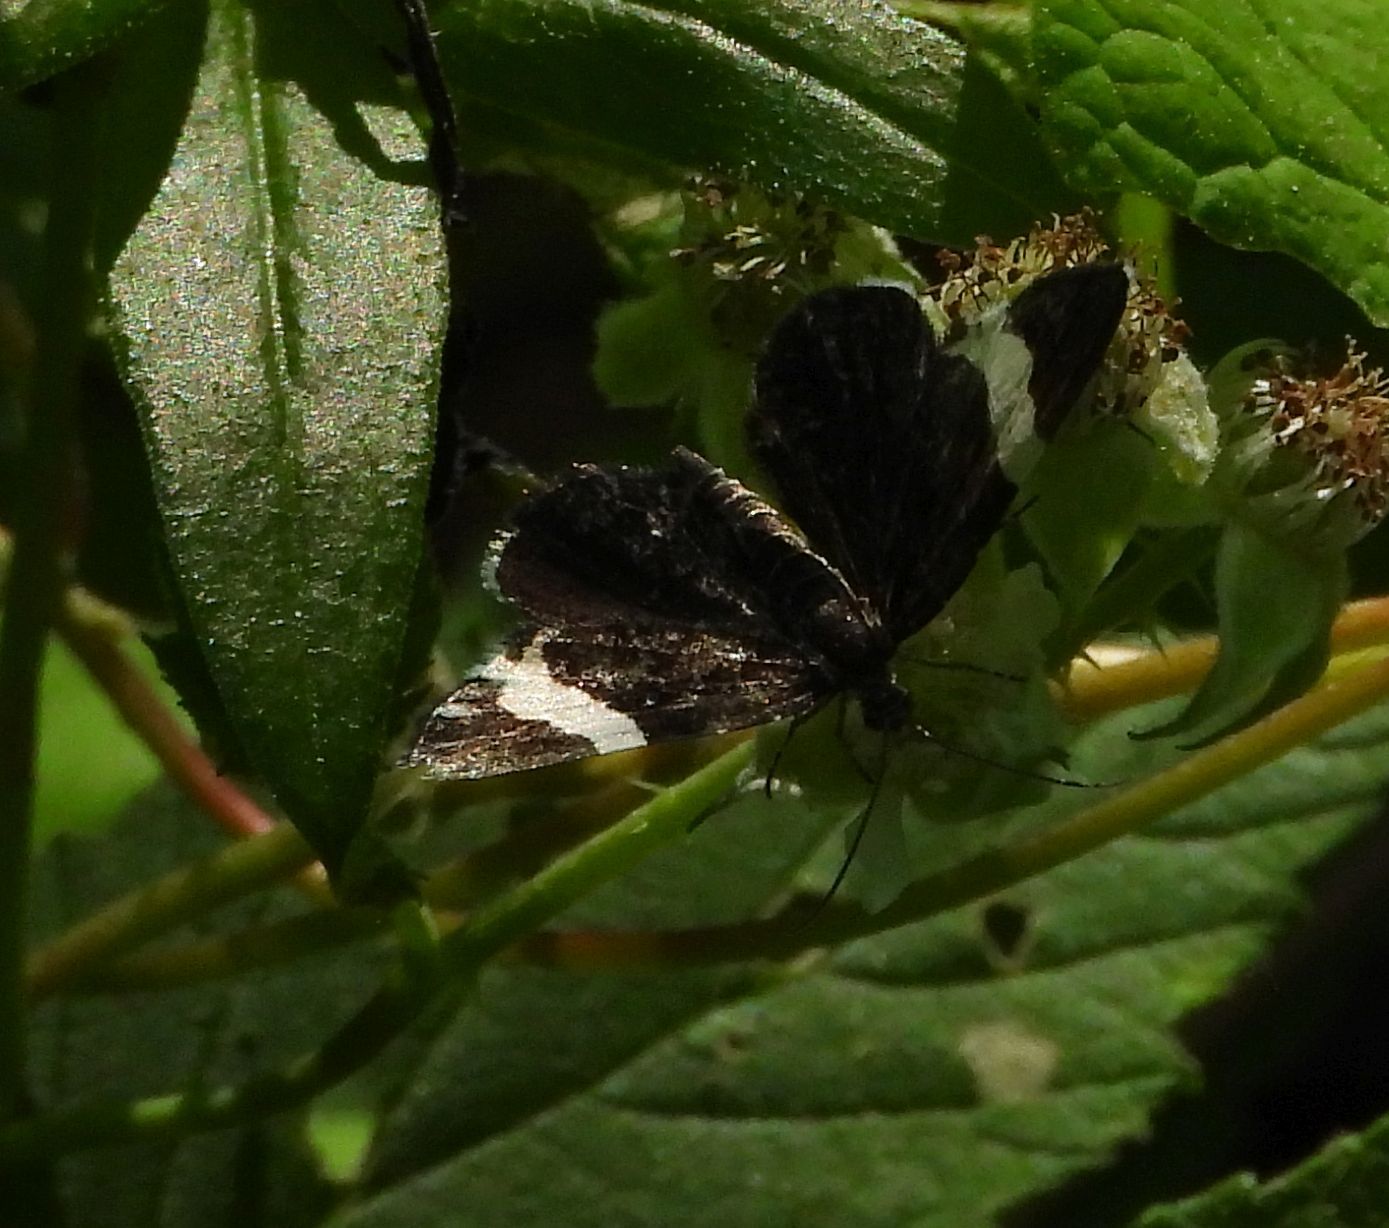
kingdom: Animalia
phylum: Arthropoda
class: Insecta
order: Lepidoptera
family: Geometridae
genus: Trichodezia
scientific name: Trichodezia albovittata
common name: White striped black
